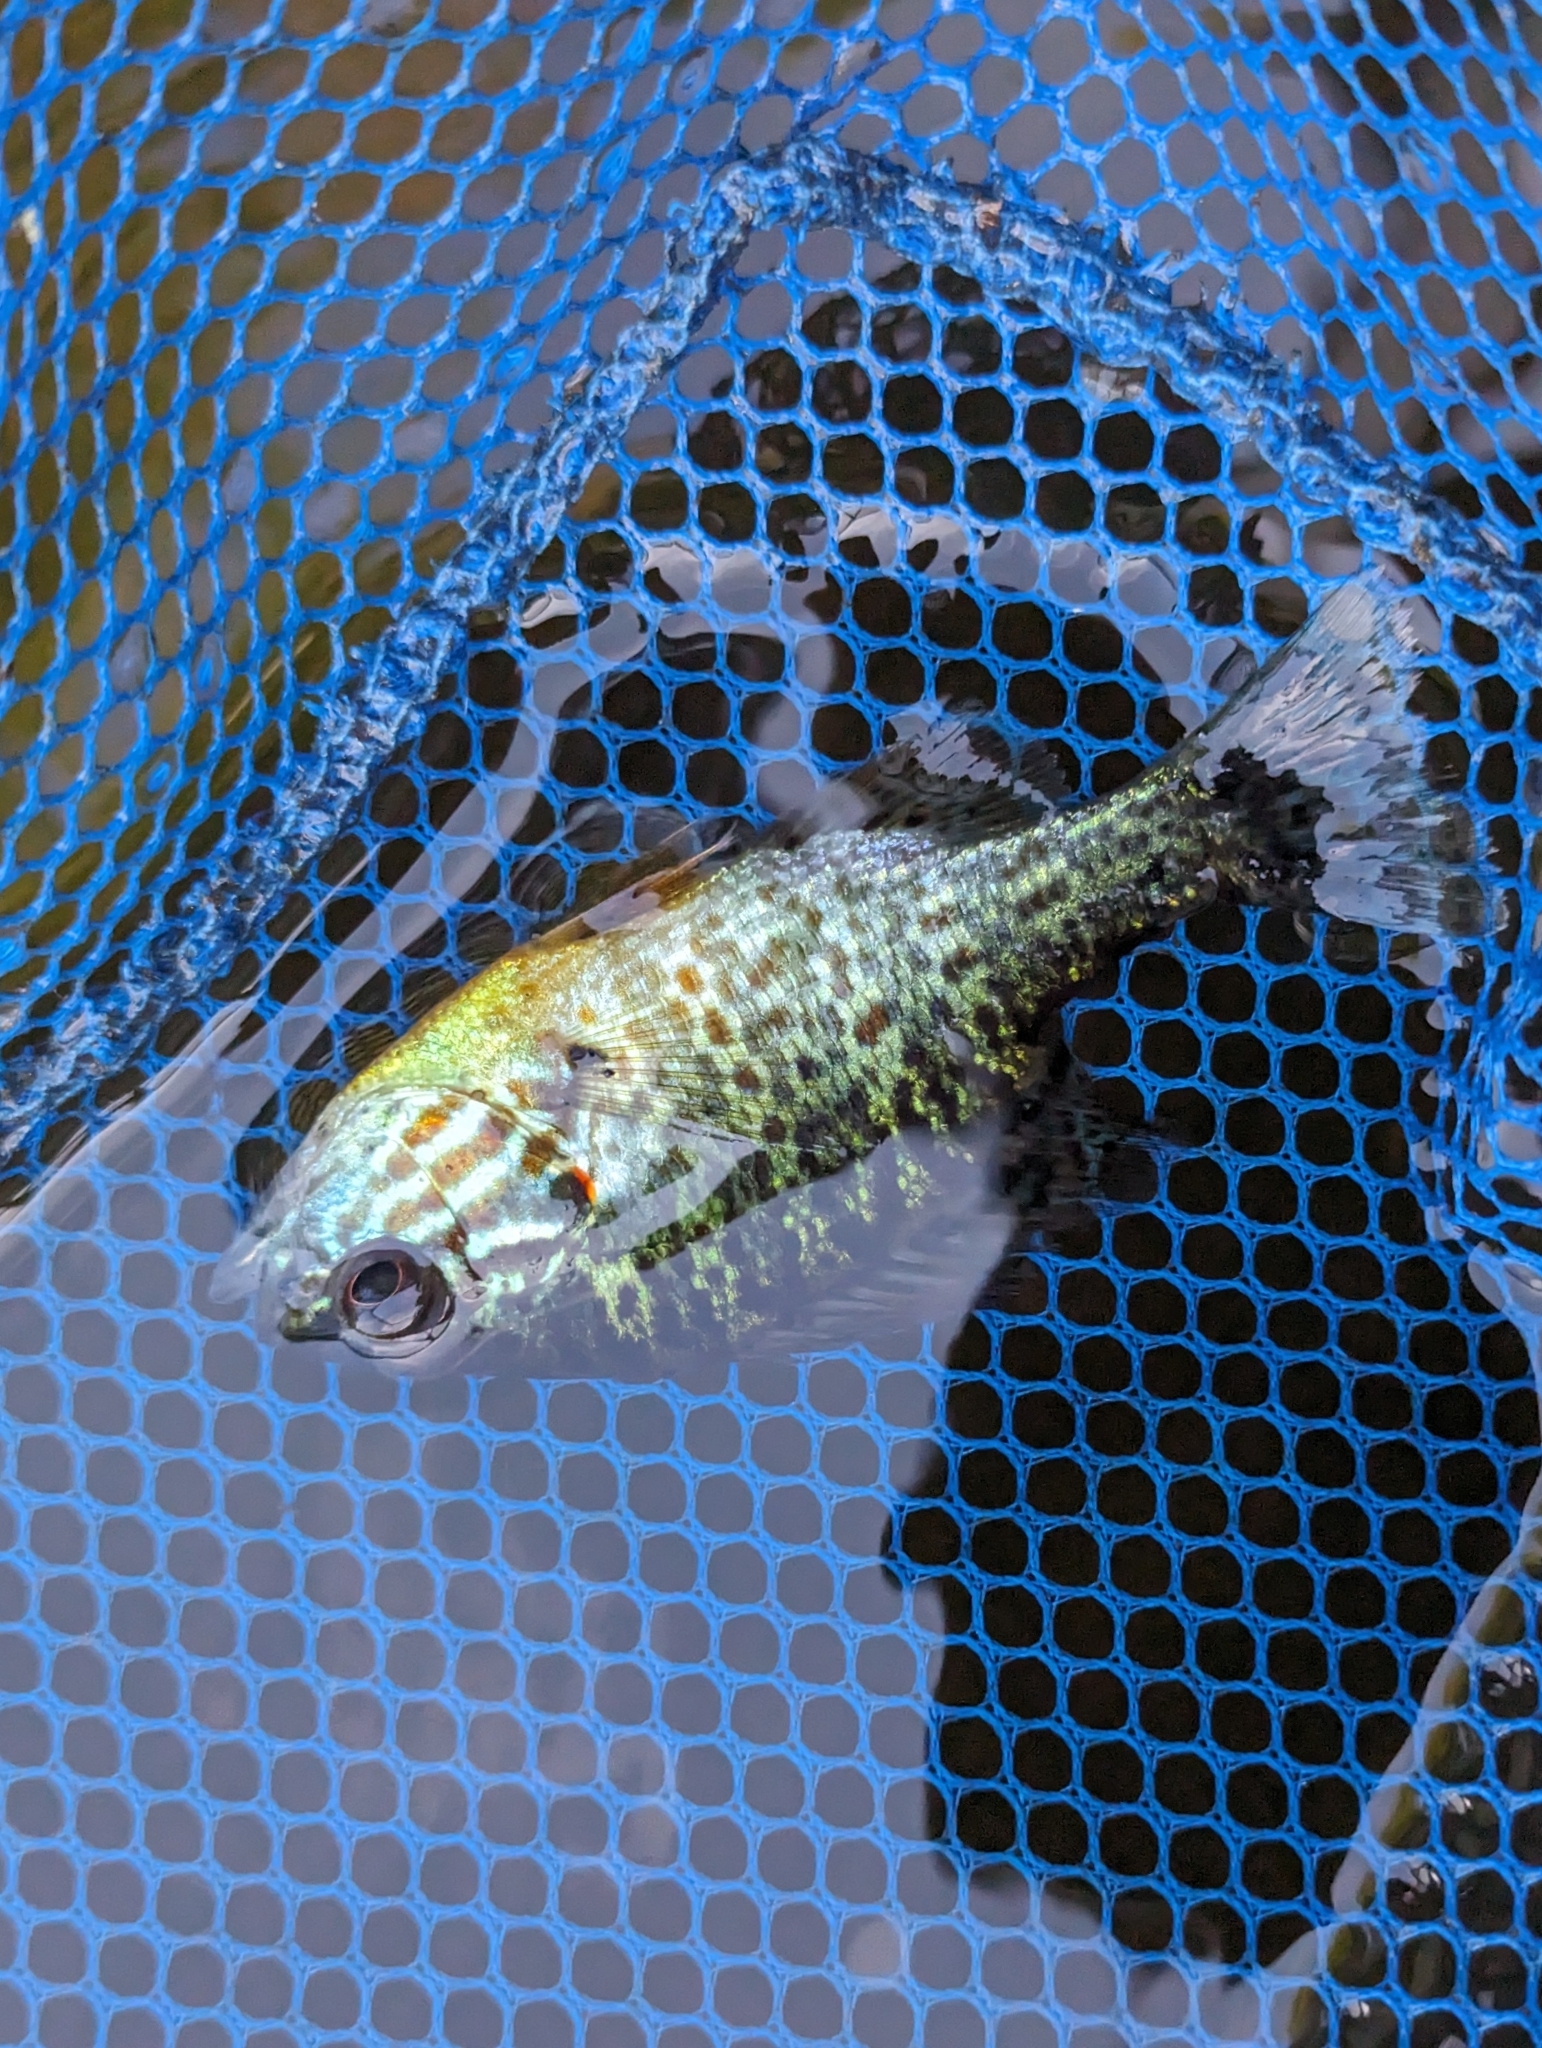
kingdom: Animalia
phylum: Chordata
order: Perciformes
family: Centrarchidae
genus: Lepomis
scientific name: Lepomis gibbosus
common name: Pumpkinseed
